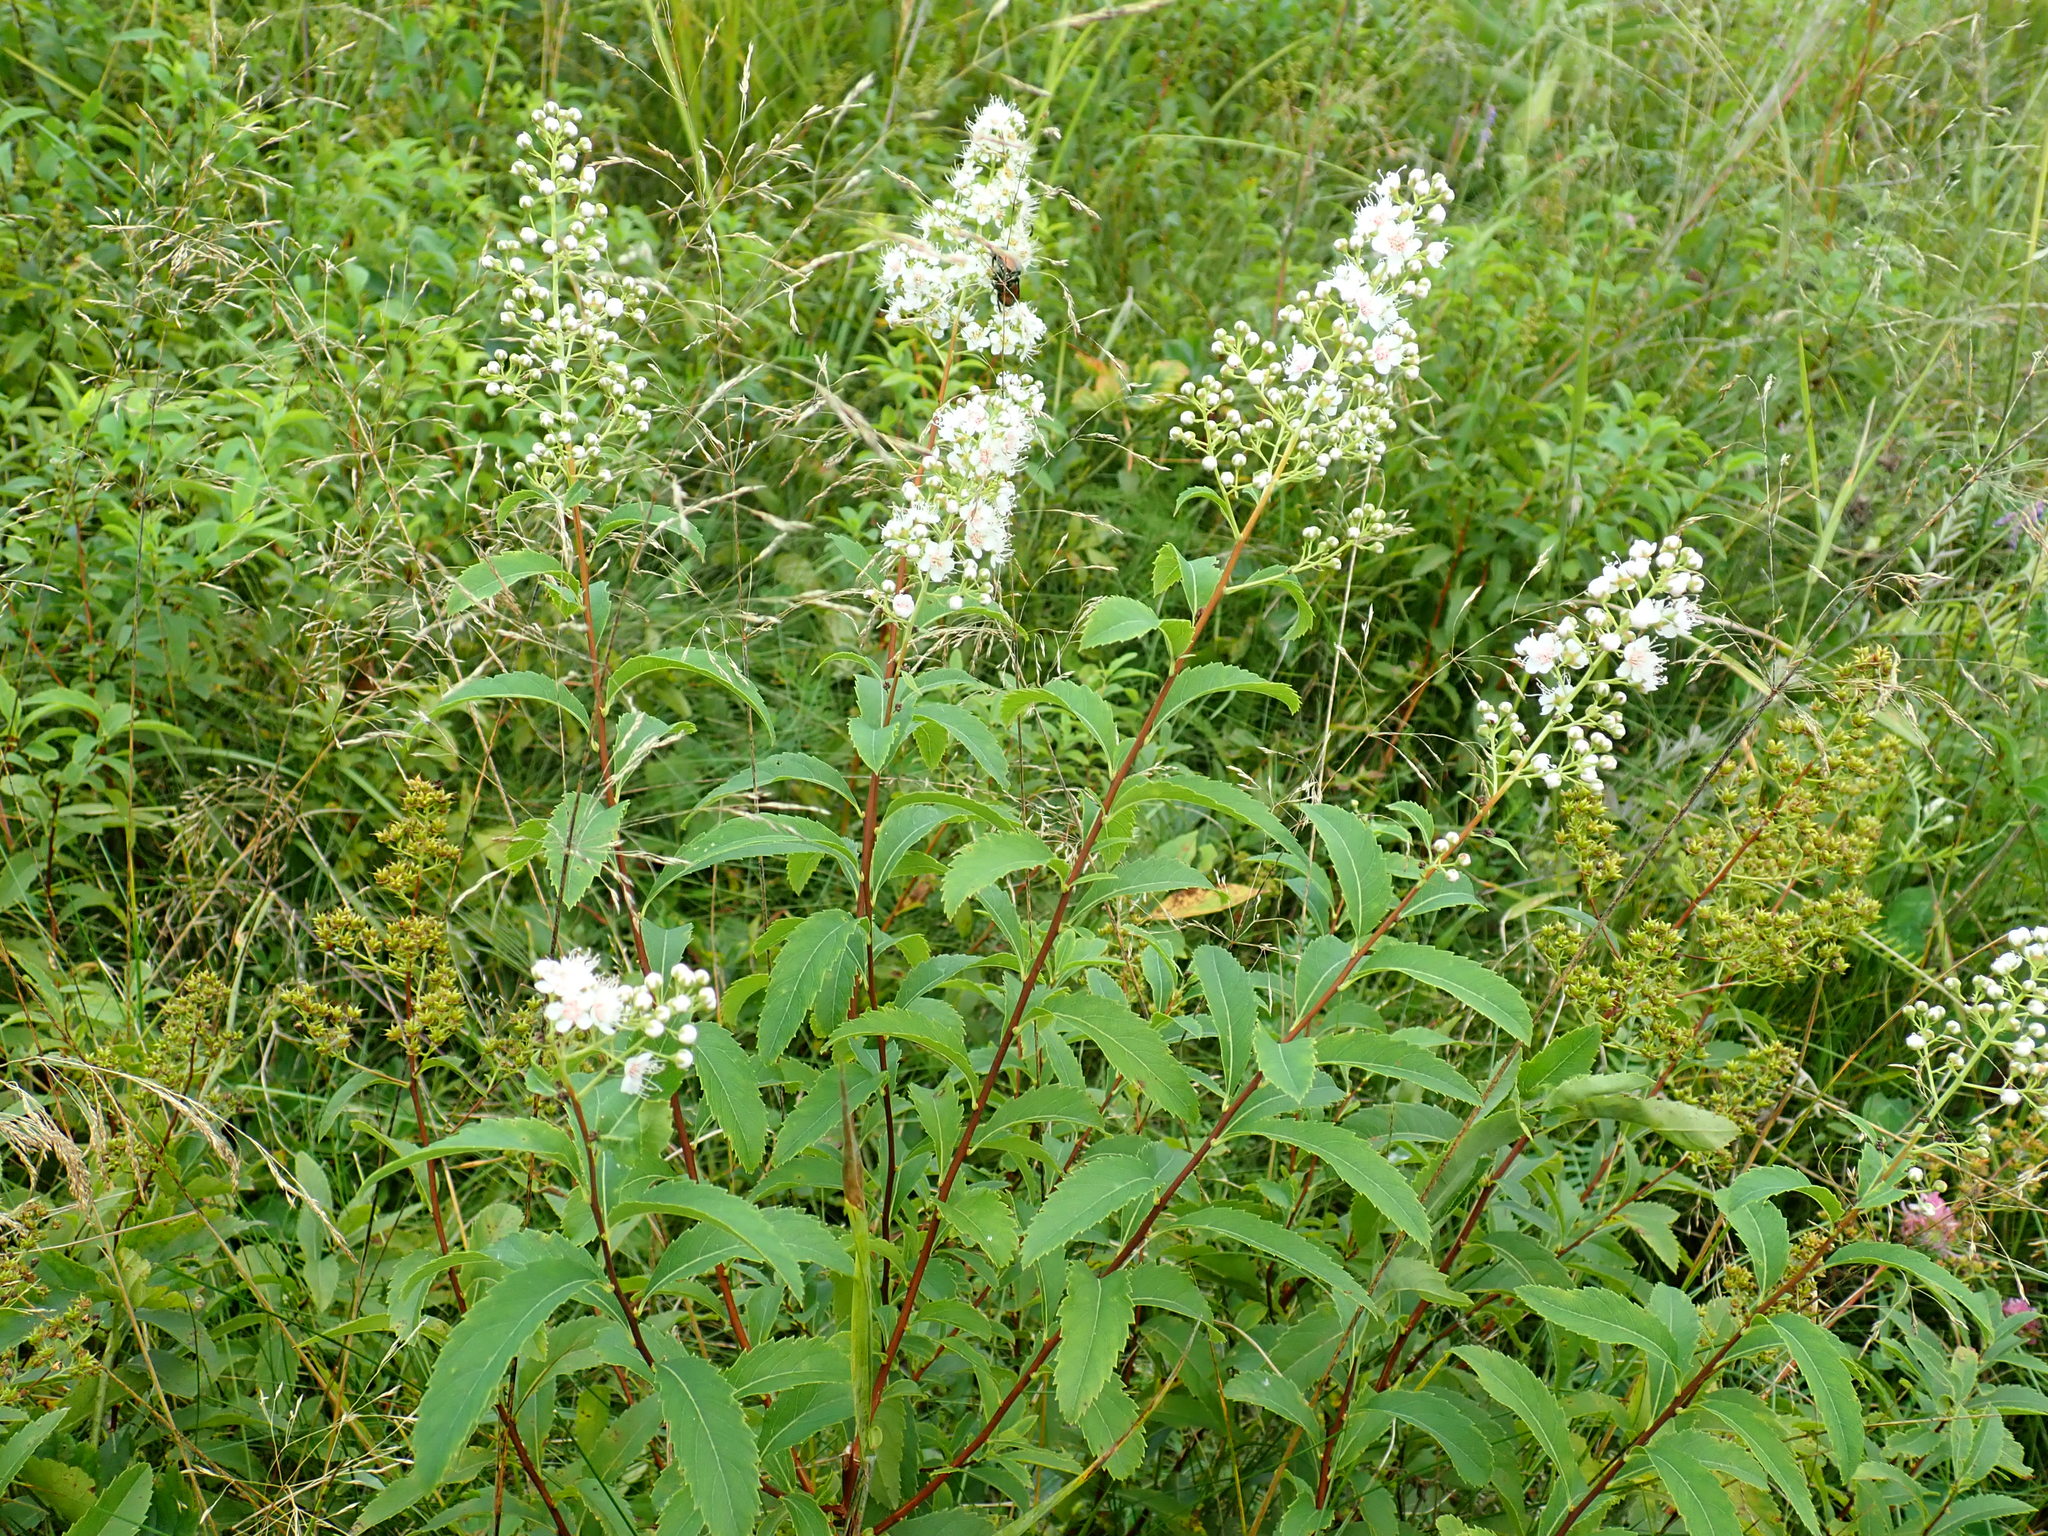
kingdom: Plantae
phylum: Tracheophyta
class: Magnoliopsida
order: Rosales
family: Rosaceae
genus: Spiraea
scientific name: Spiraea alba
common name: Pale bridewort
